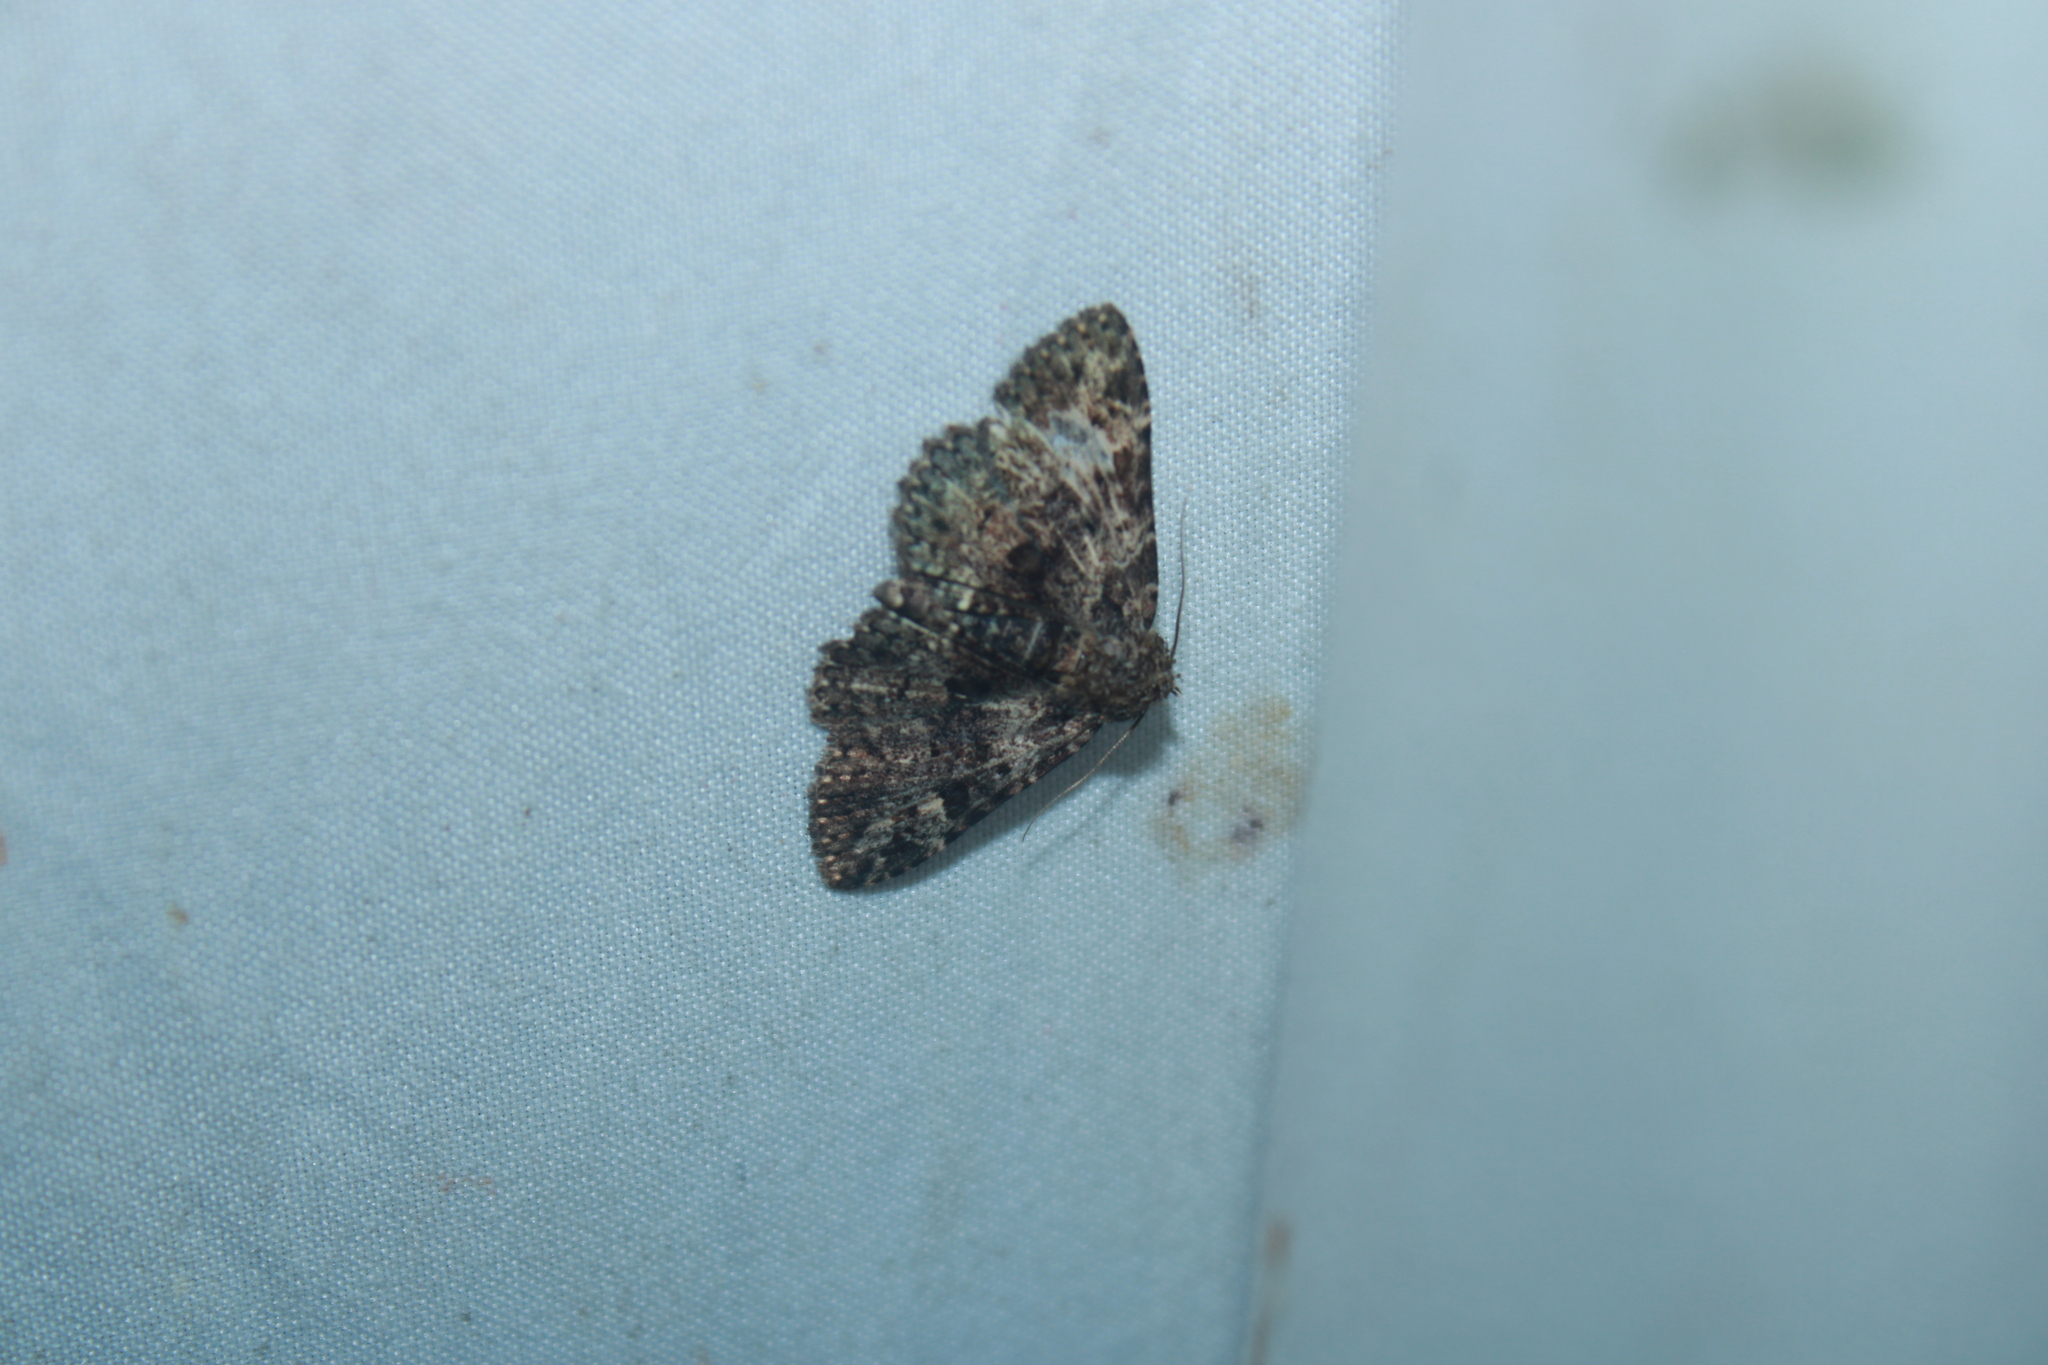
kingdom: Animalia
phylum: Arthropoda
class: Insecta
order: Lepidoptera
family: Erebidae
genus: Metalectra
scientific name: Metalectra discalis
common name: Common fungus moth
